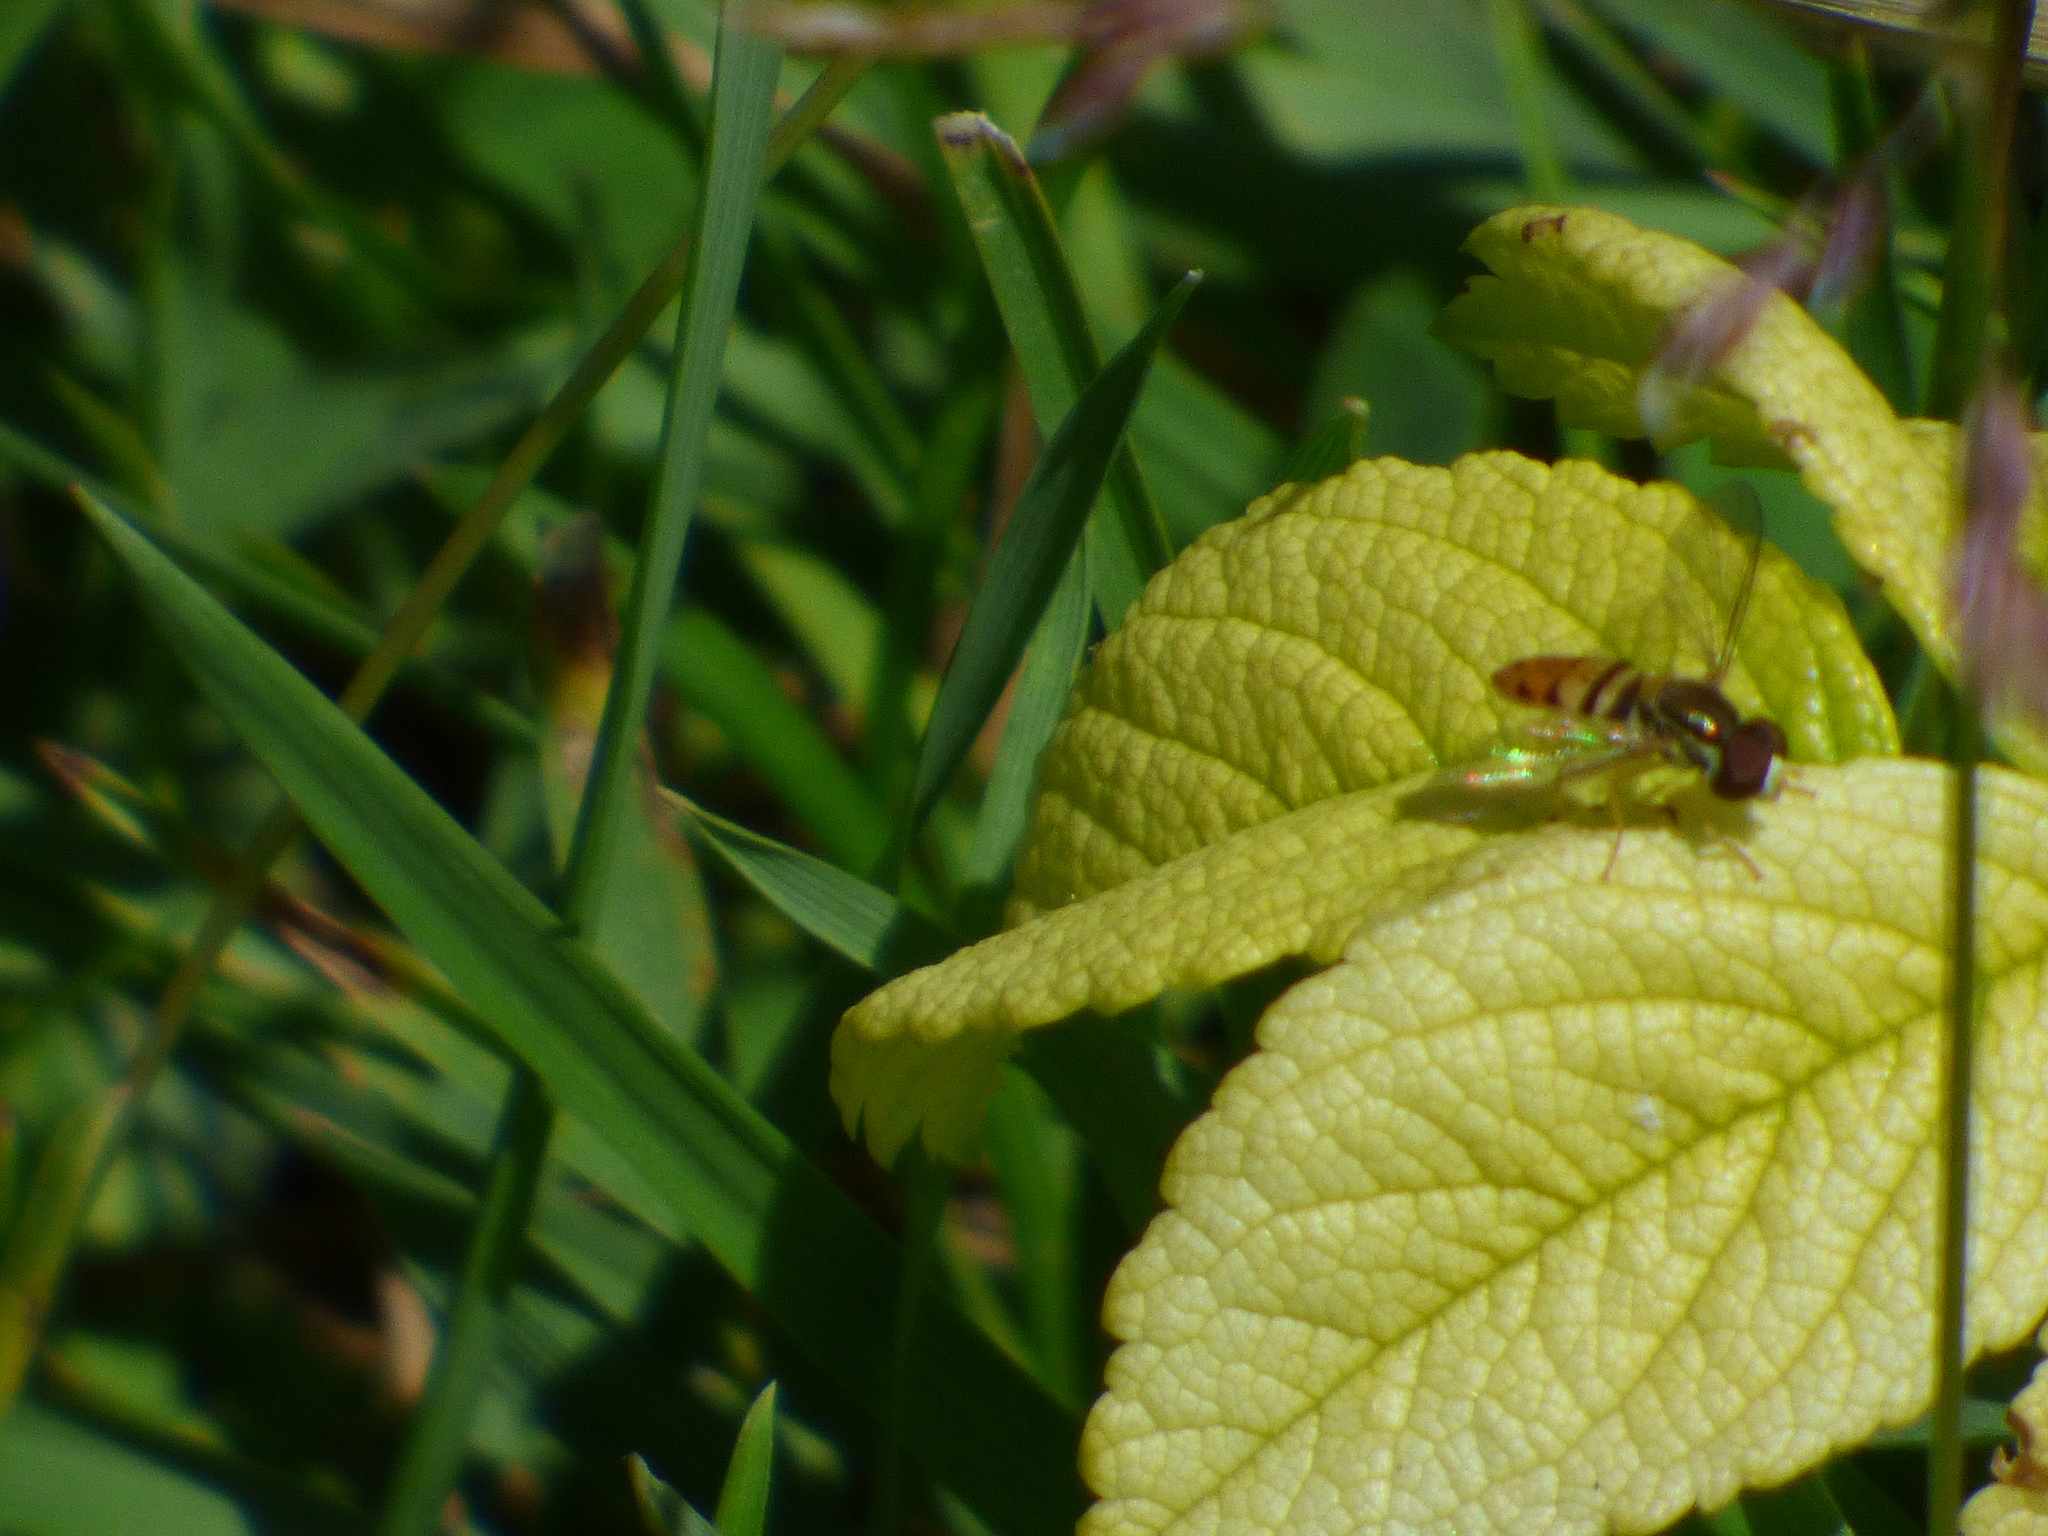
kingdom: Animalia
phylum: Arthropoda
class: Insecta
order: Diptera
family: Syrphidae
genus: Toxomerus
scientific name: Toxomerus marginatus
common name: Syrphid fly
